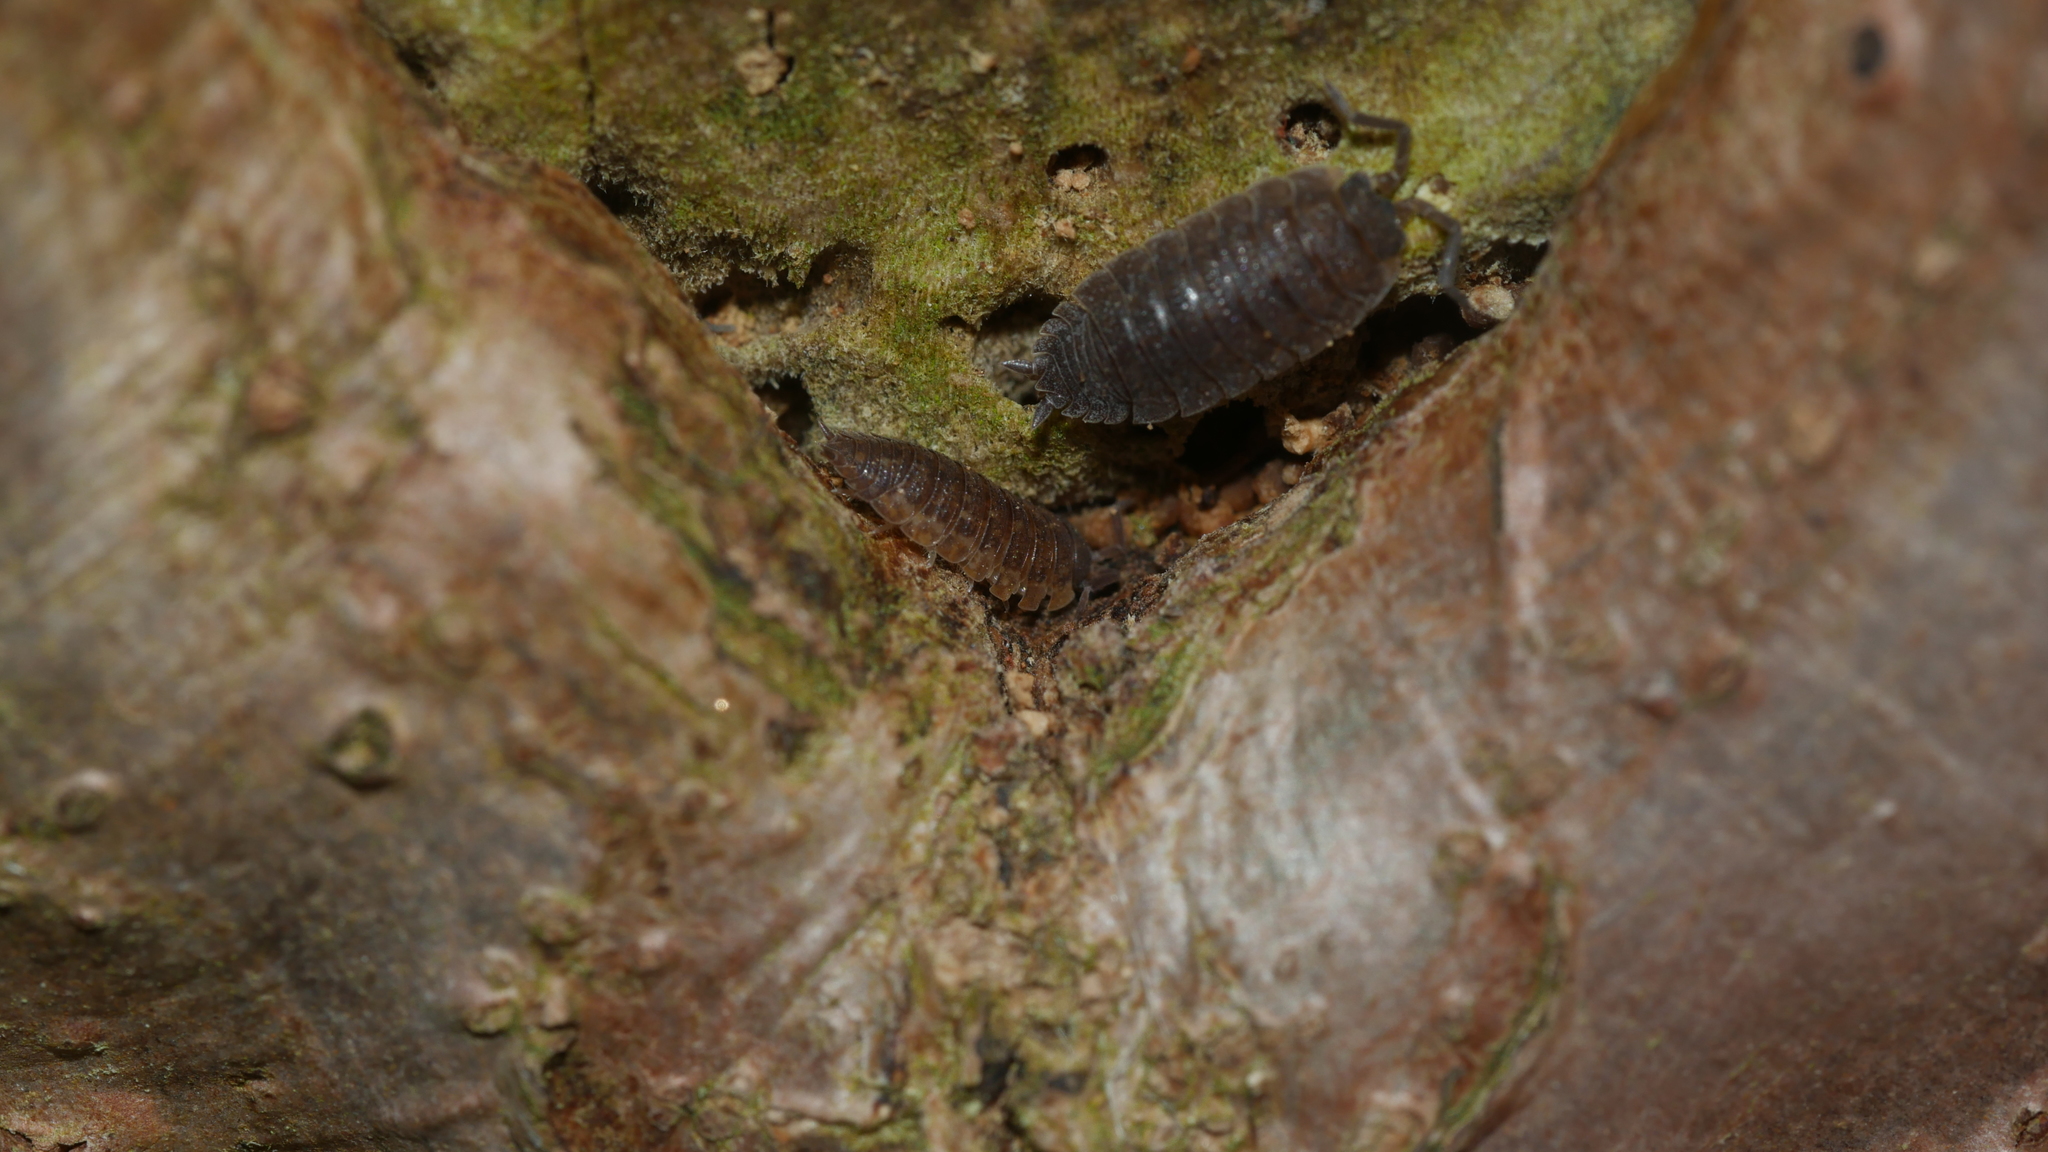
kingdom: Animalia
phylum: Arthropoda
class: Malacostraca
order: Isopoda
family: Porcellionidae
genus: Porcellio
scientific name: Porcellio scaber
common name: Common rough woodlouse
